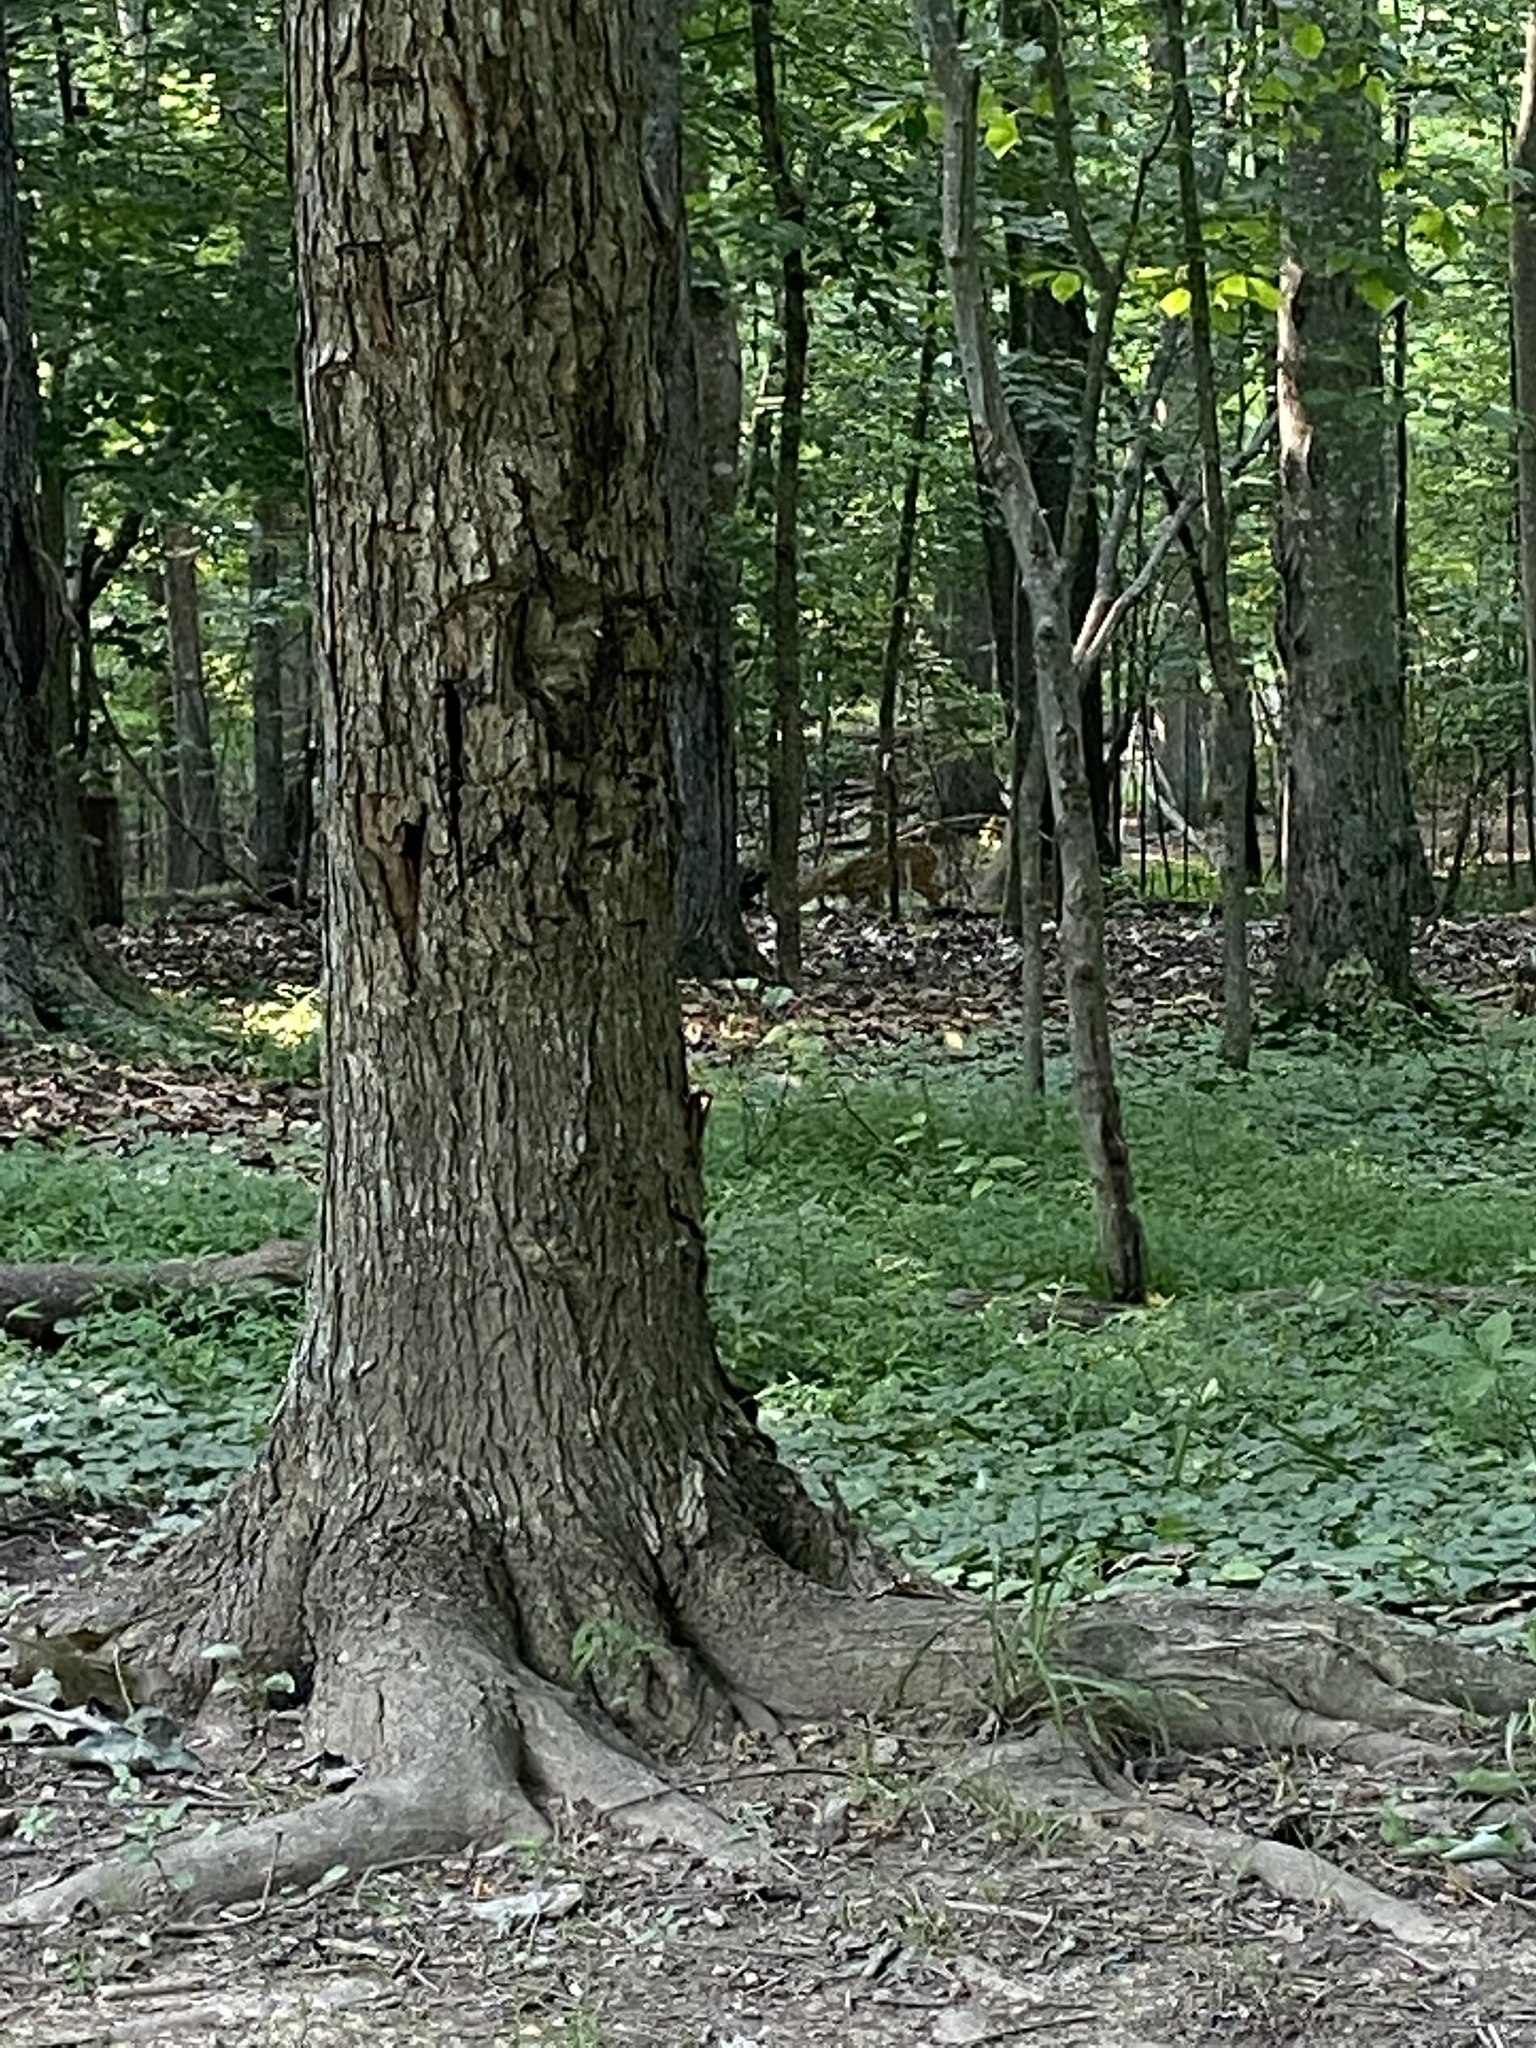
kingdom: Animalia
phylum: Chordata
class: Mammalia
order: Artiodactyla
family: Cervidae
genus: Odocoileus
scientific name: Odocoileus virginianus
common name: White-tailed deer
